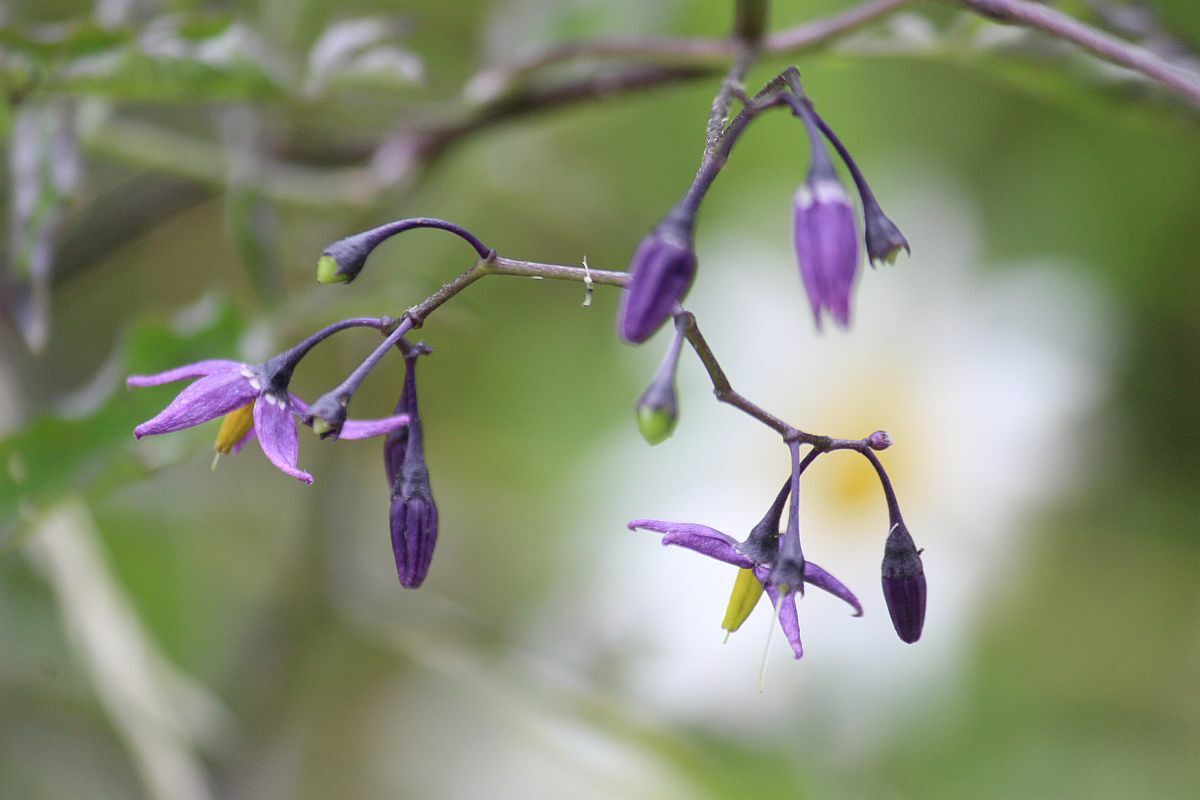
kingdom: Plantae
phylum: Tracheophyta
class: Magnoliopsida
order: Solanales
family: Solanaceae
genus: Solanum
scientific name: Solanum dulcamara
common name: Climbing nightshade
